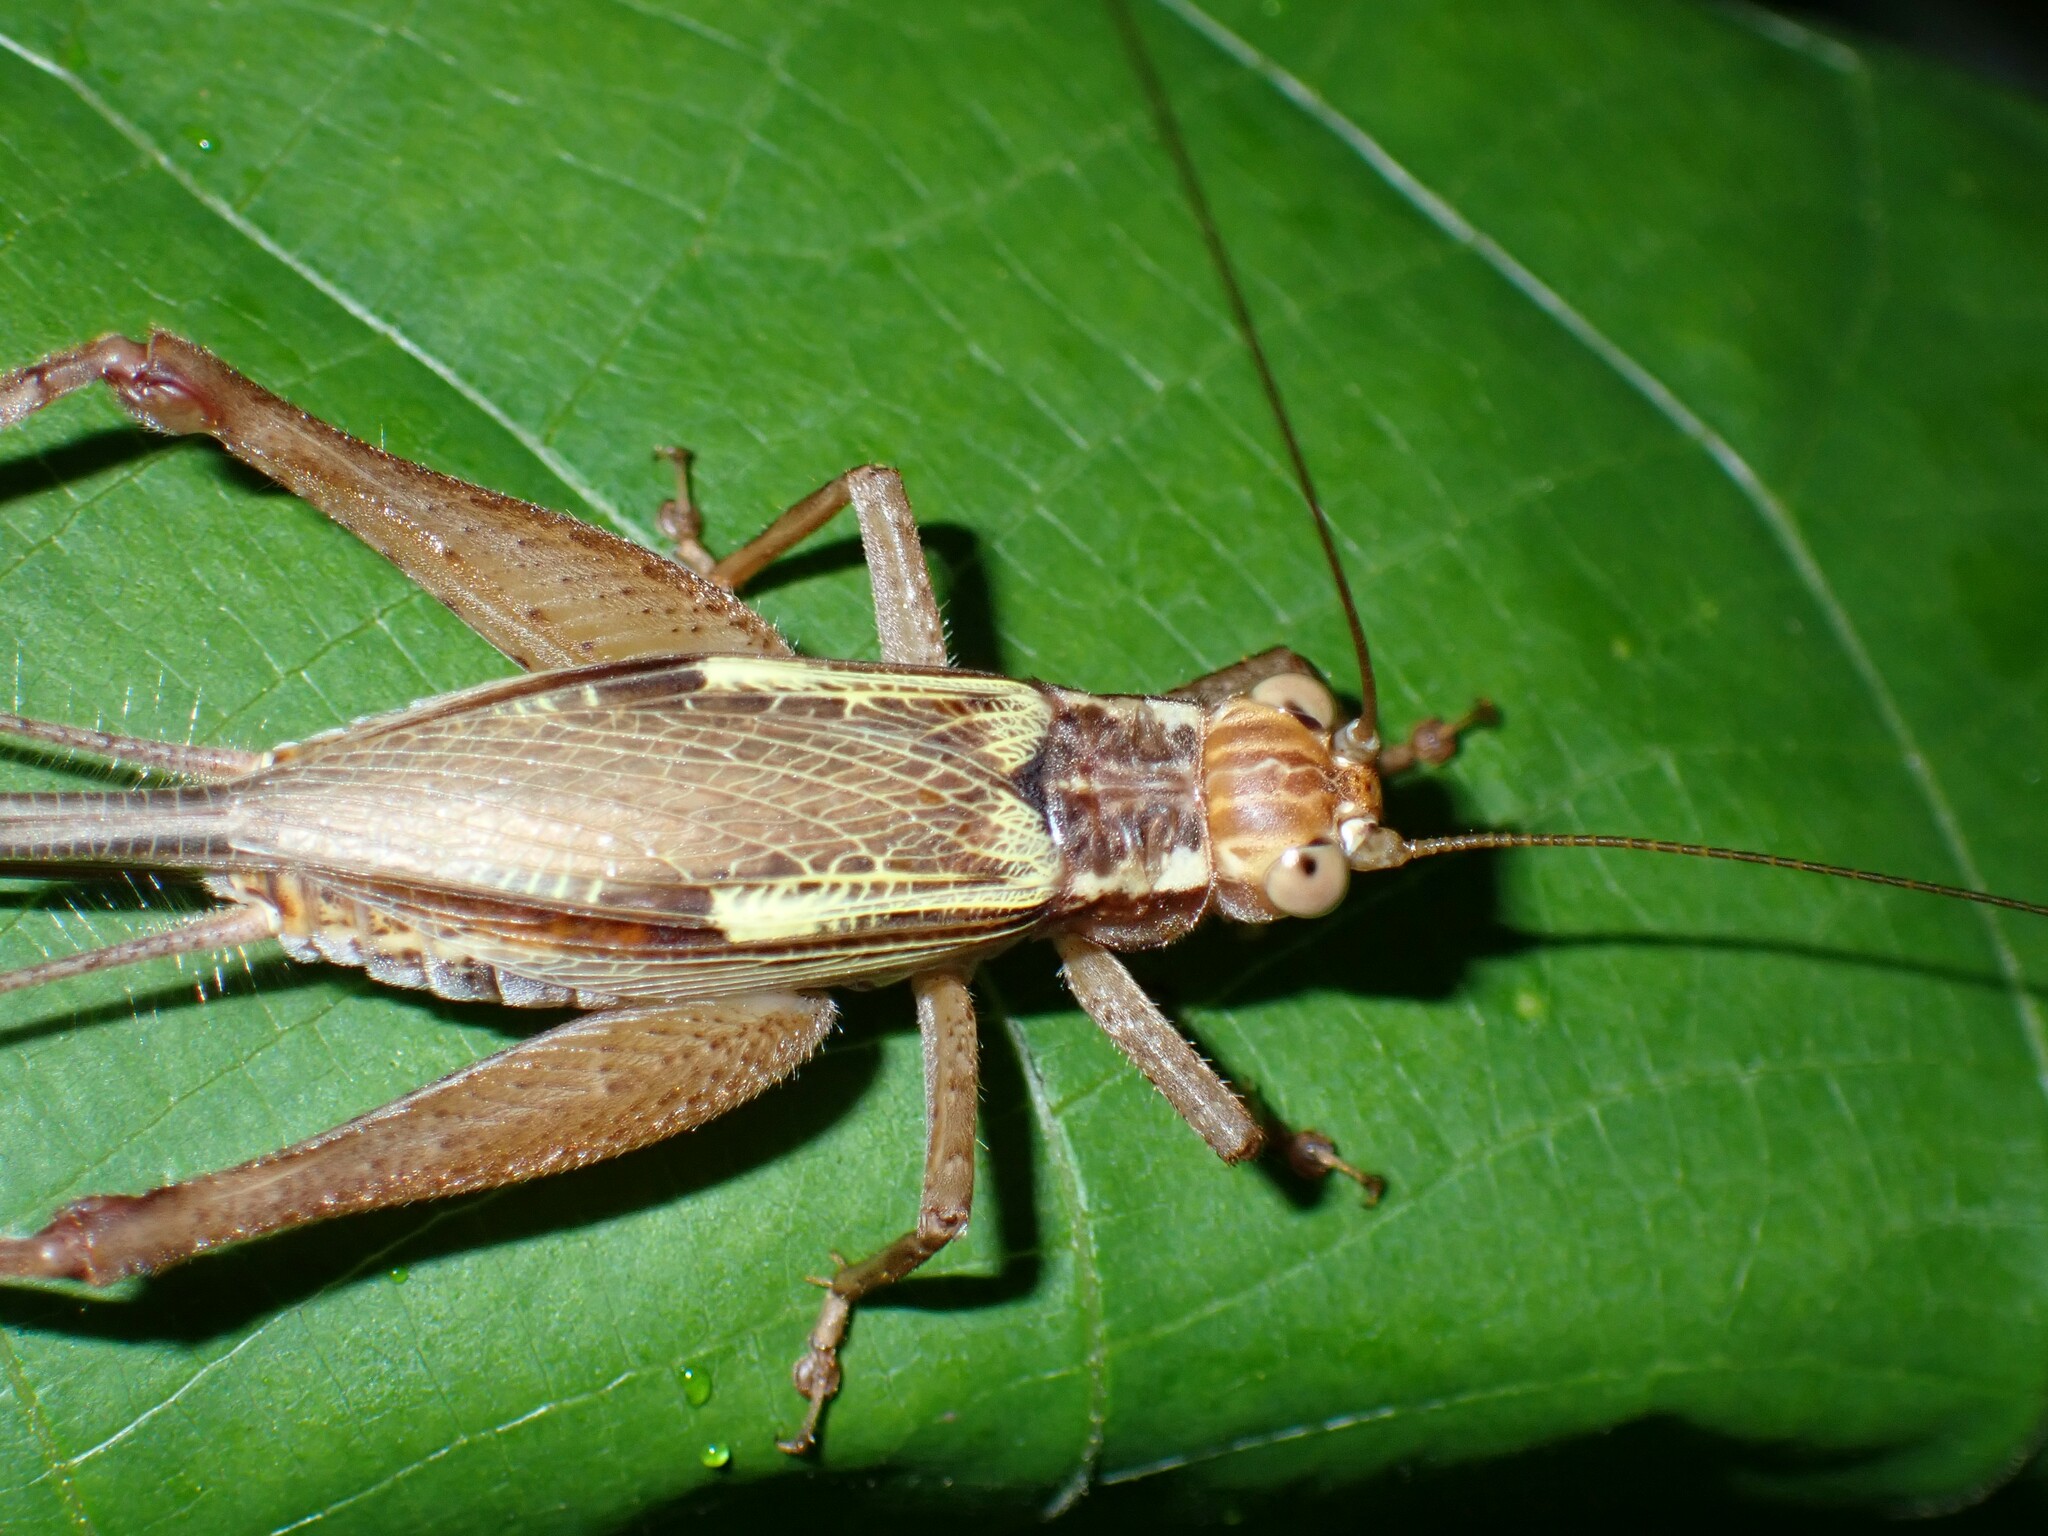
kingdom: Animalia
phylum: Arthropoda
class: Insecta
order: Orthoptera
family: Gryllidae
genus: Cardiodactylus
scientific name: Cardiodactylus novaeguineae
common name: Sad cricket
